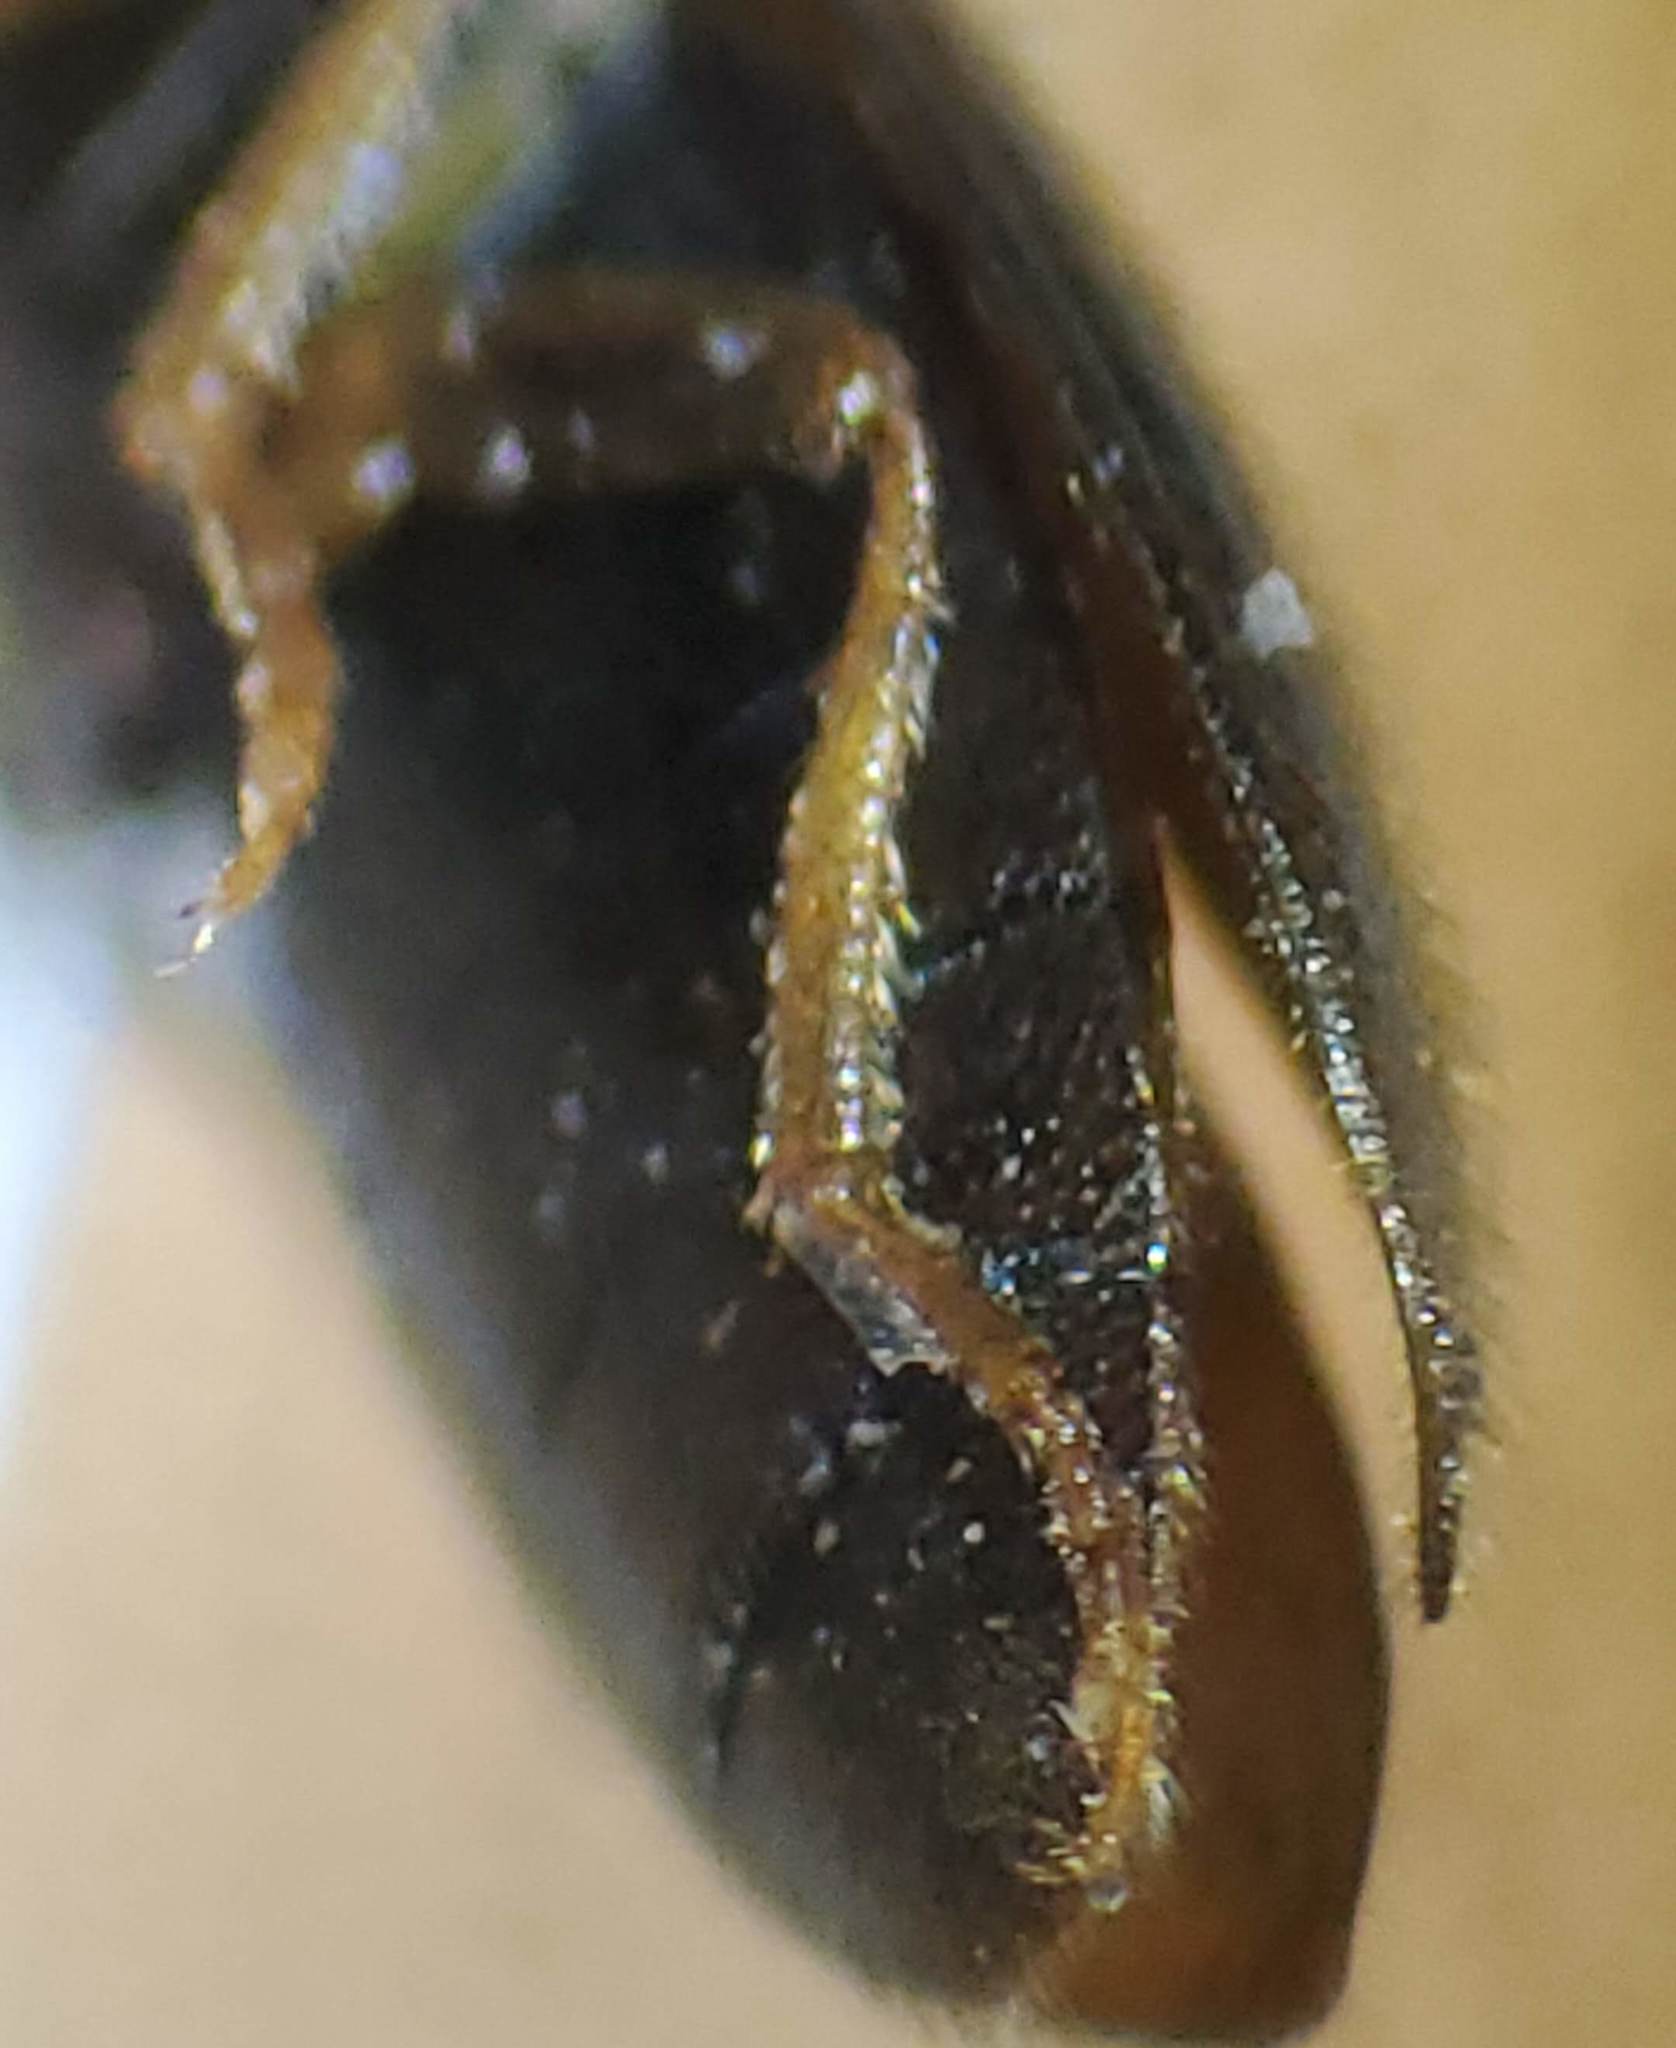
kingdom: Animalia
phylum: Arthropoda
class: Insecta
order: Coleoptera
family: Elateridae
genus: Anchastus
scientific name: Anchastus cinereipennis
